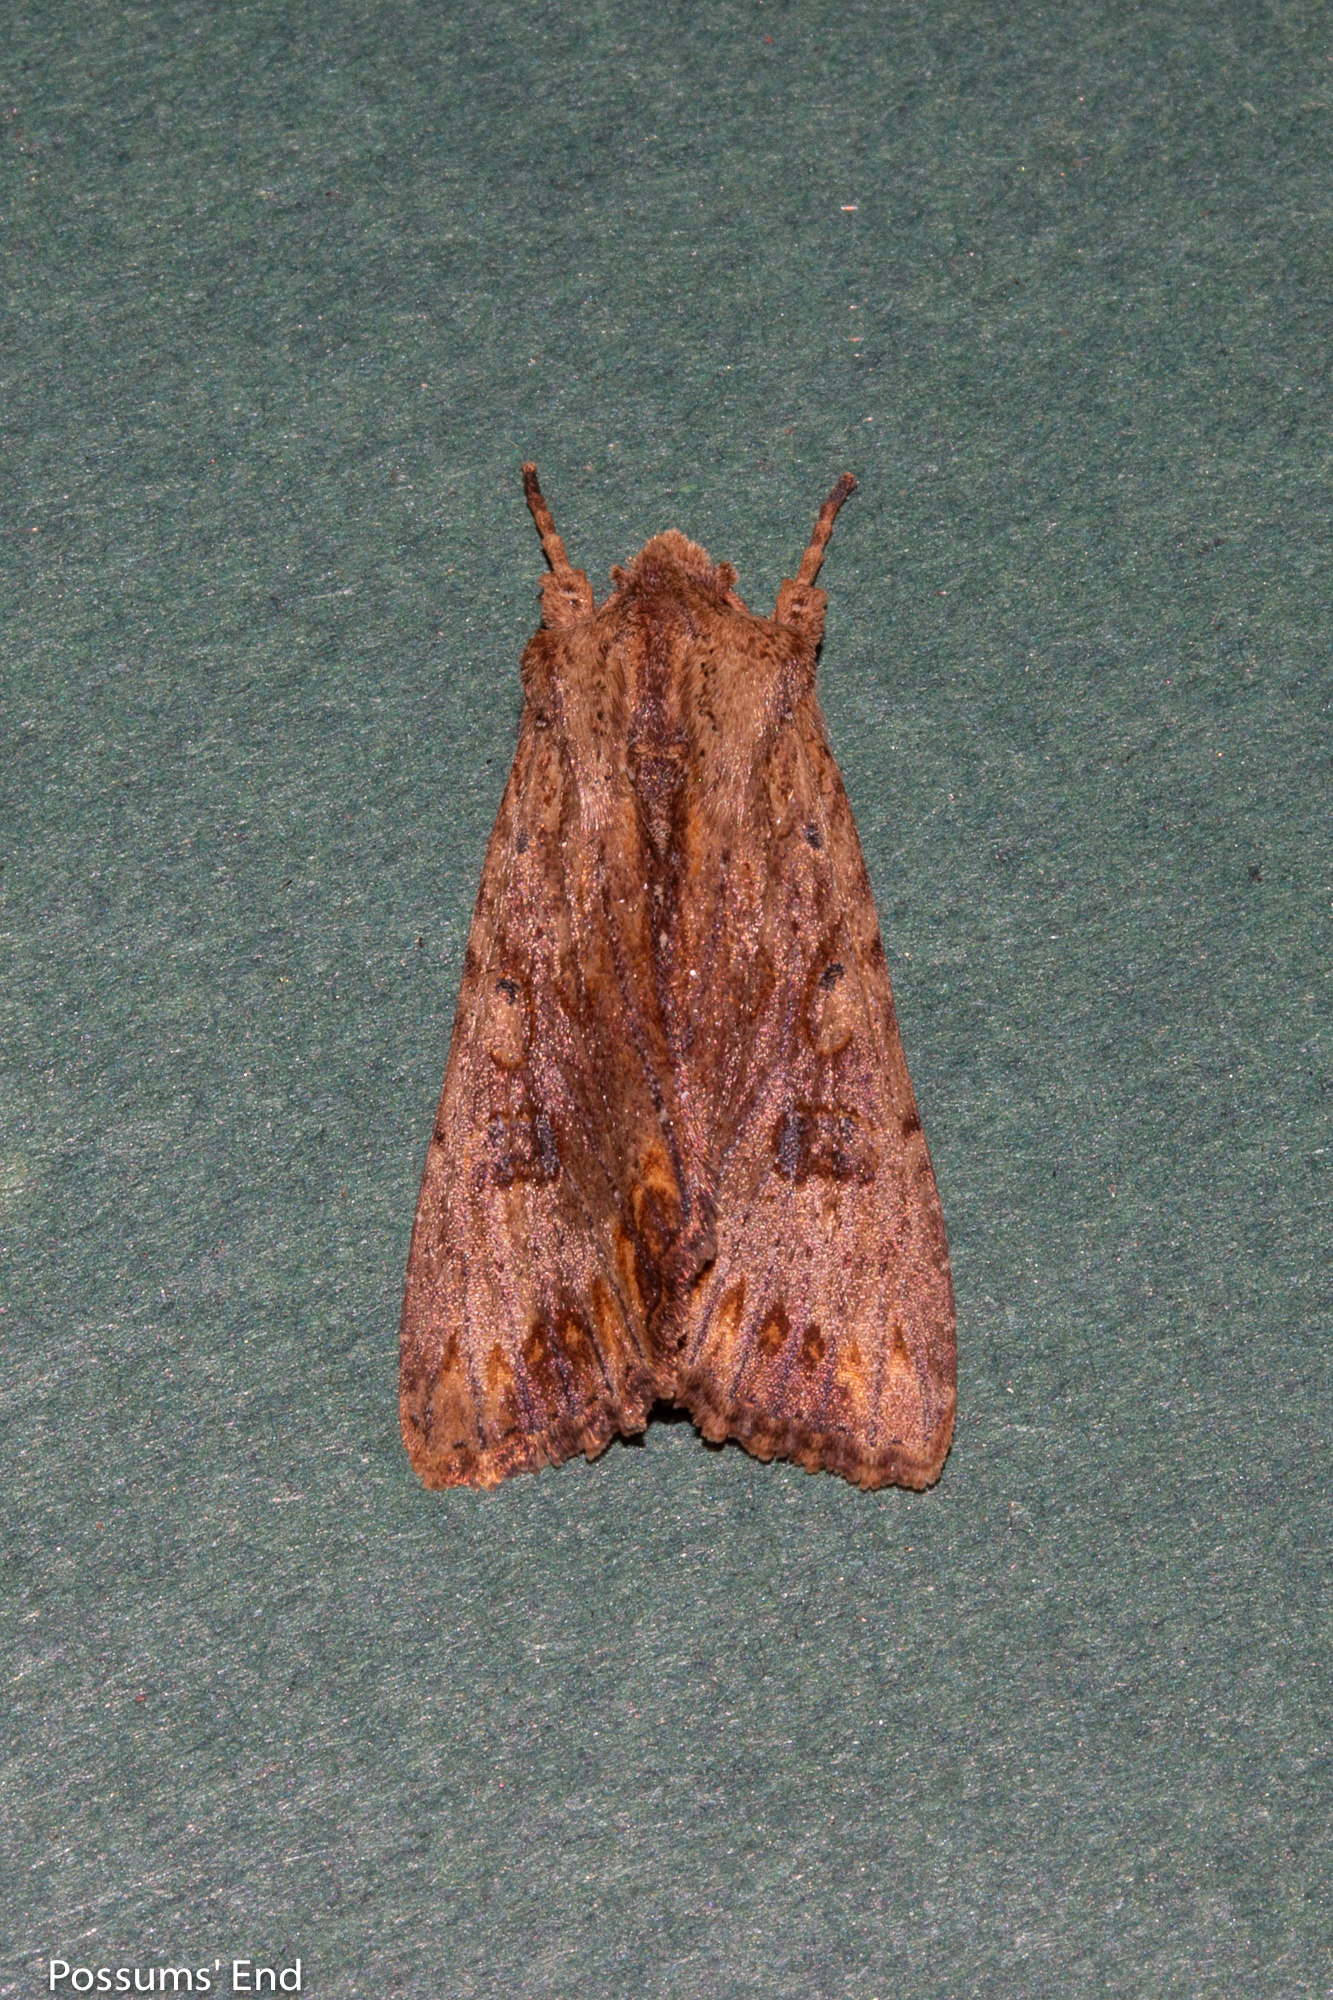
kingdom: Animalia
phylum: Arthropoda
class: Insecta
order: Lepidoptera
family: Noctuidae
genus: Ichneutica
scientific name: Ichneutica
